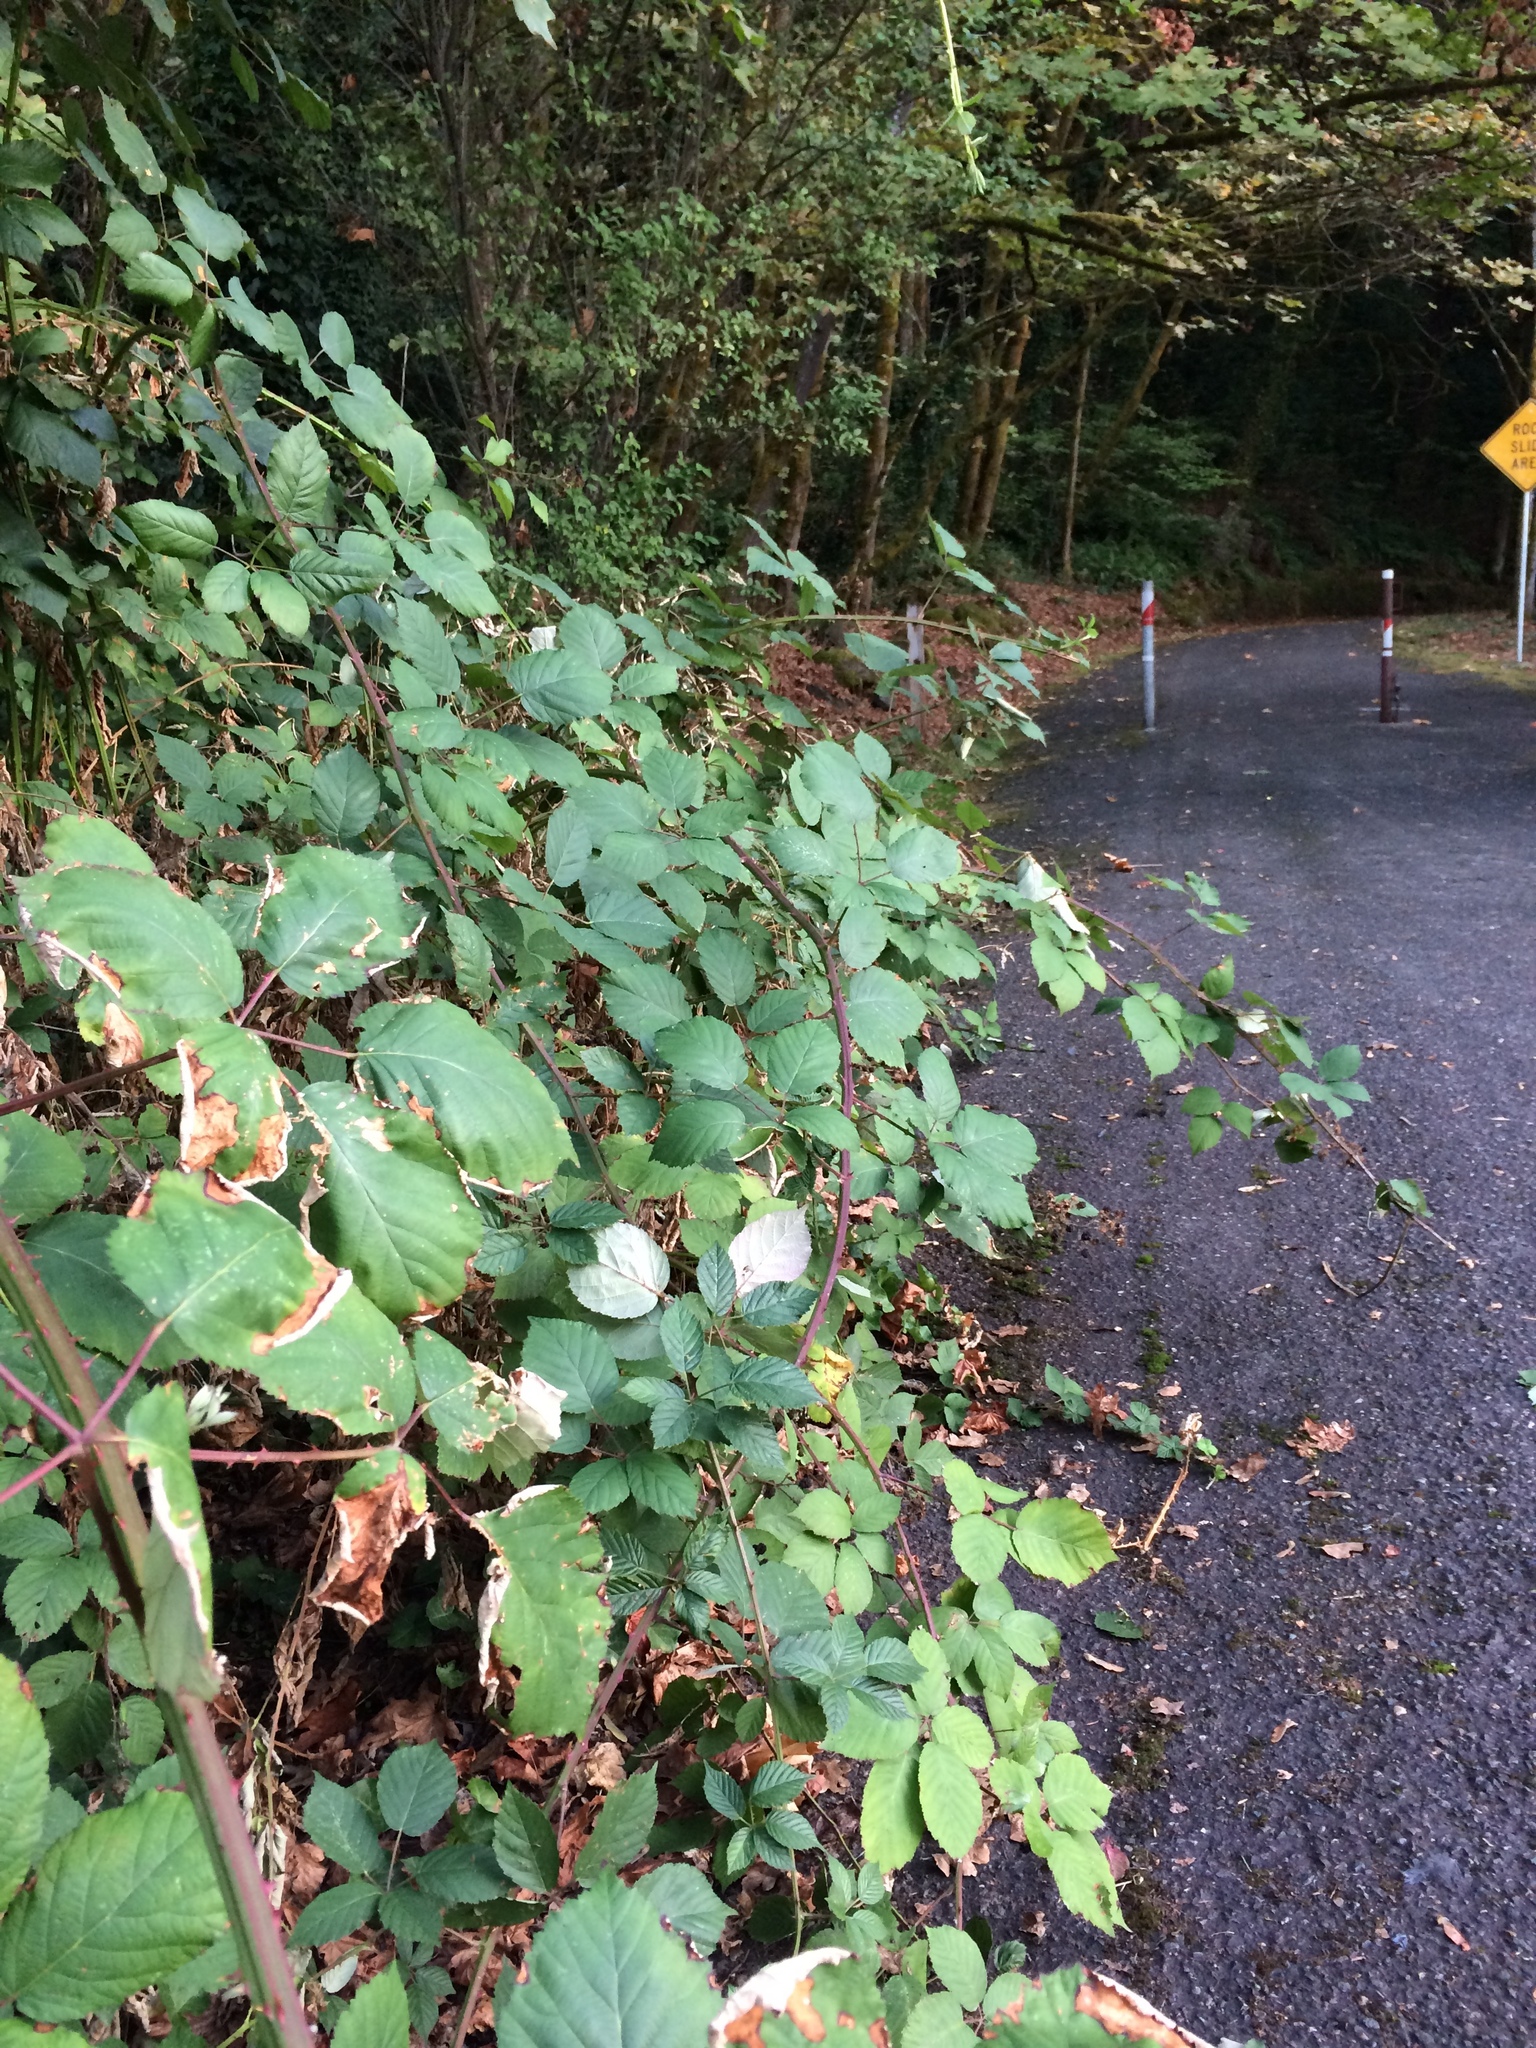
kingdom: Plantae
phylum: Tracheophyta
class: Magnoliopsida
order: Rosales
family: Rosaceae
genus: Rubus
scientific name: Rubus bifrons
